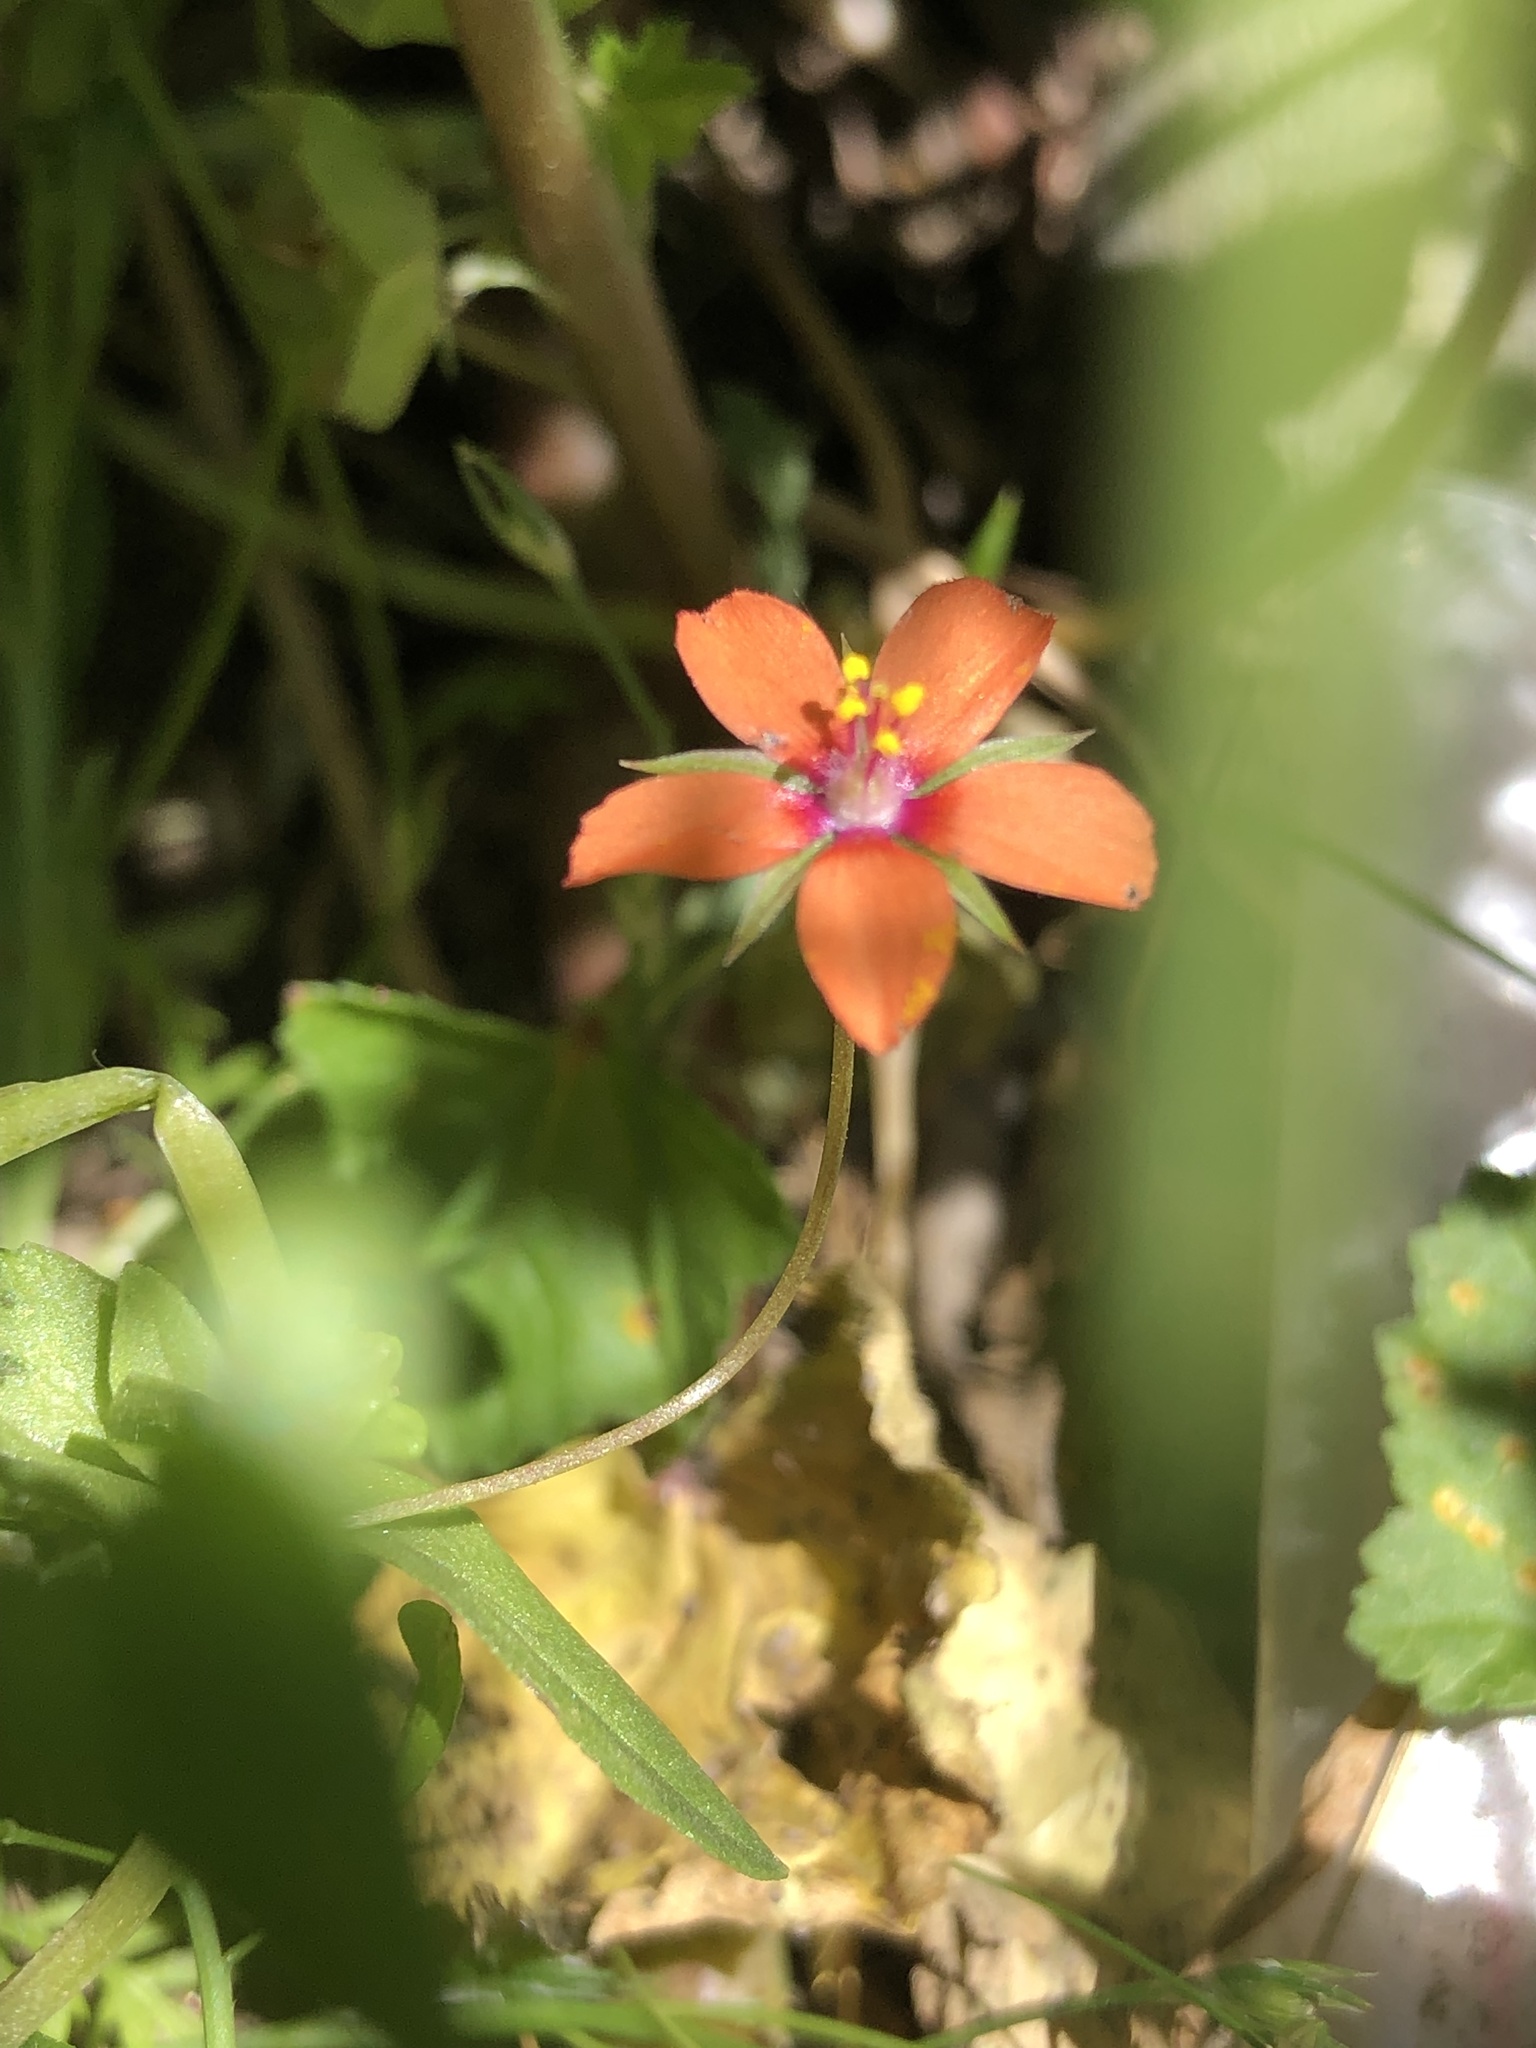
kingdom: Plantae
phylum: Tracheophyta
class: Magnoliopsida
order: Ericales
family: Primulaceae
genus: Lysimachia
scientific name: Lysimachia arvensis
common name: Scarlet pimpernel
